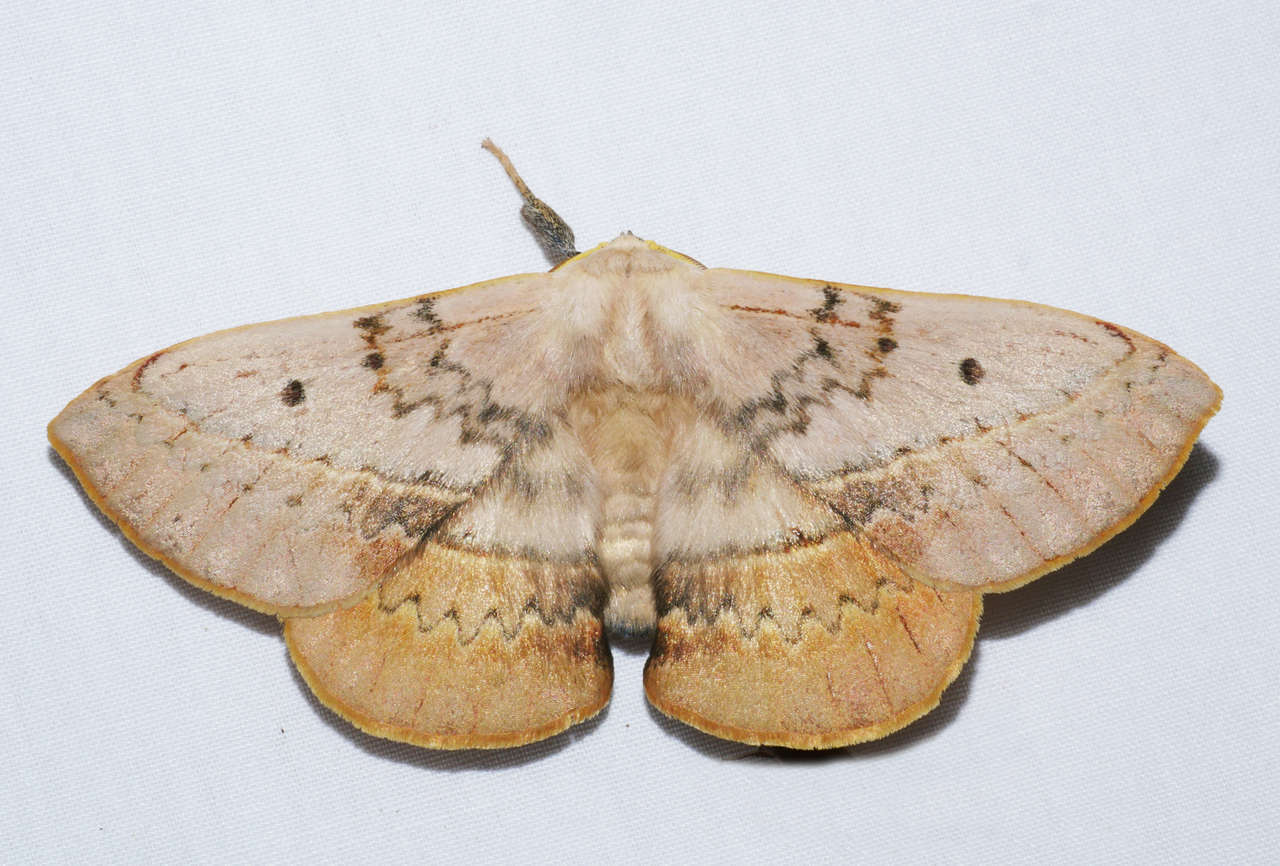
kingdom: Animalia
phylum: Arthropoda
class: Insecta
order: Lepidoptera
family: Anthelidae
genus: Anthela
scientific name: Anthela varia
